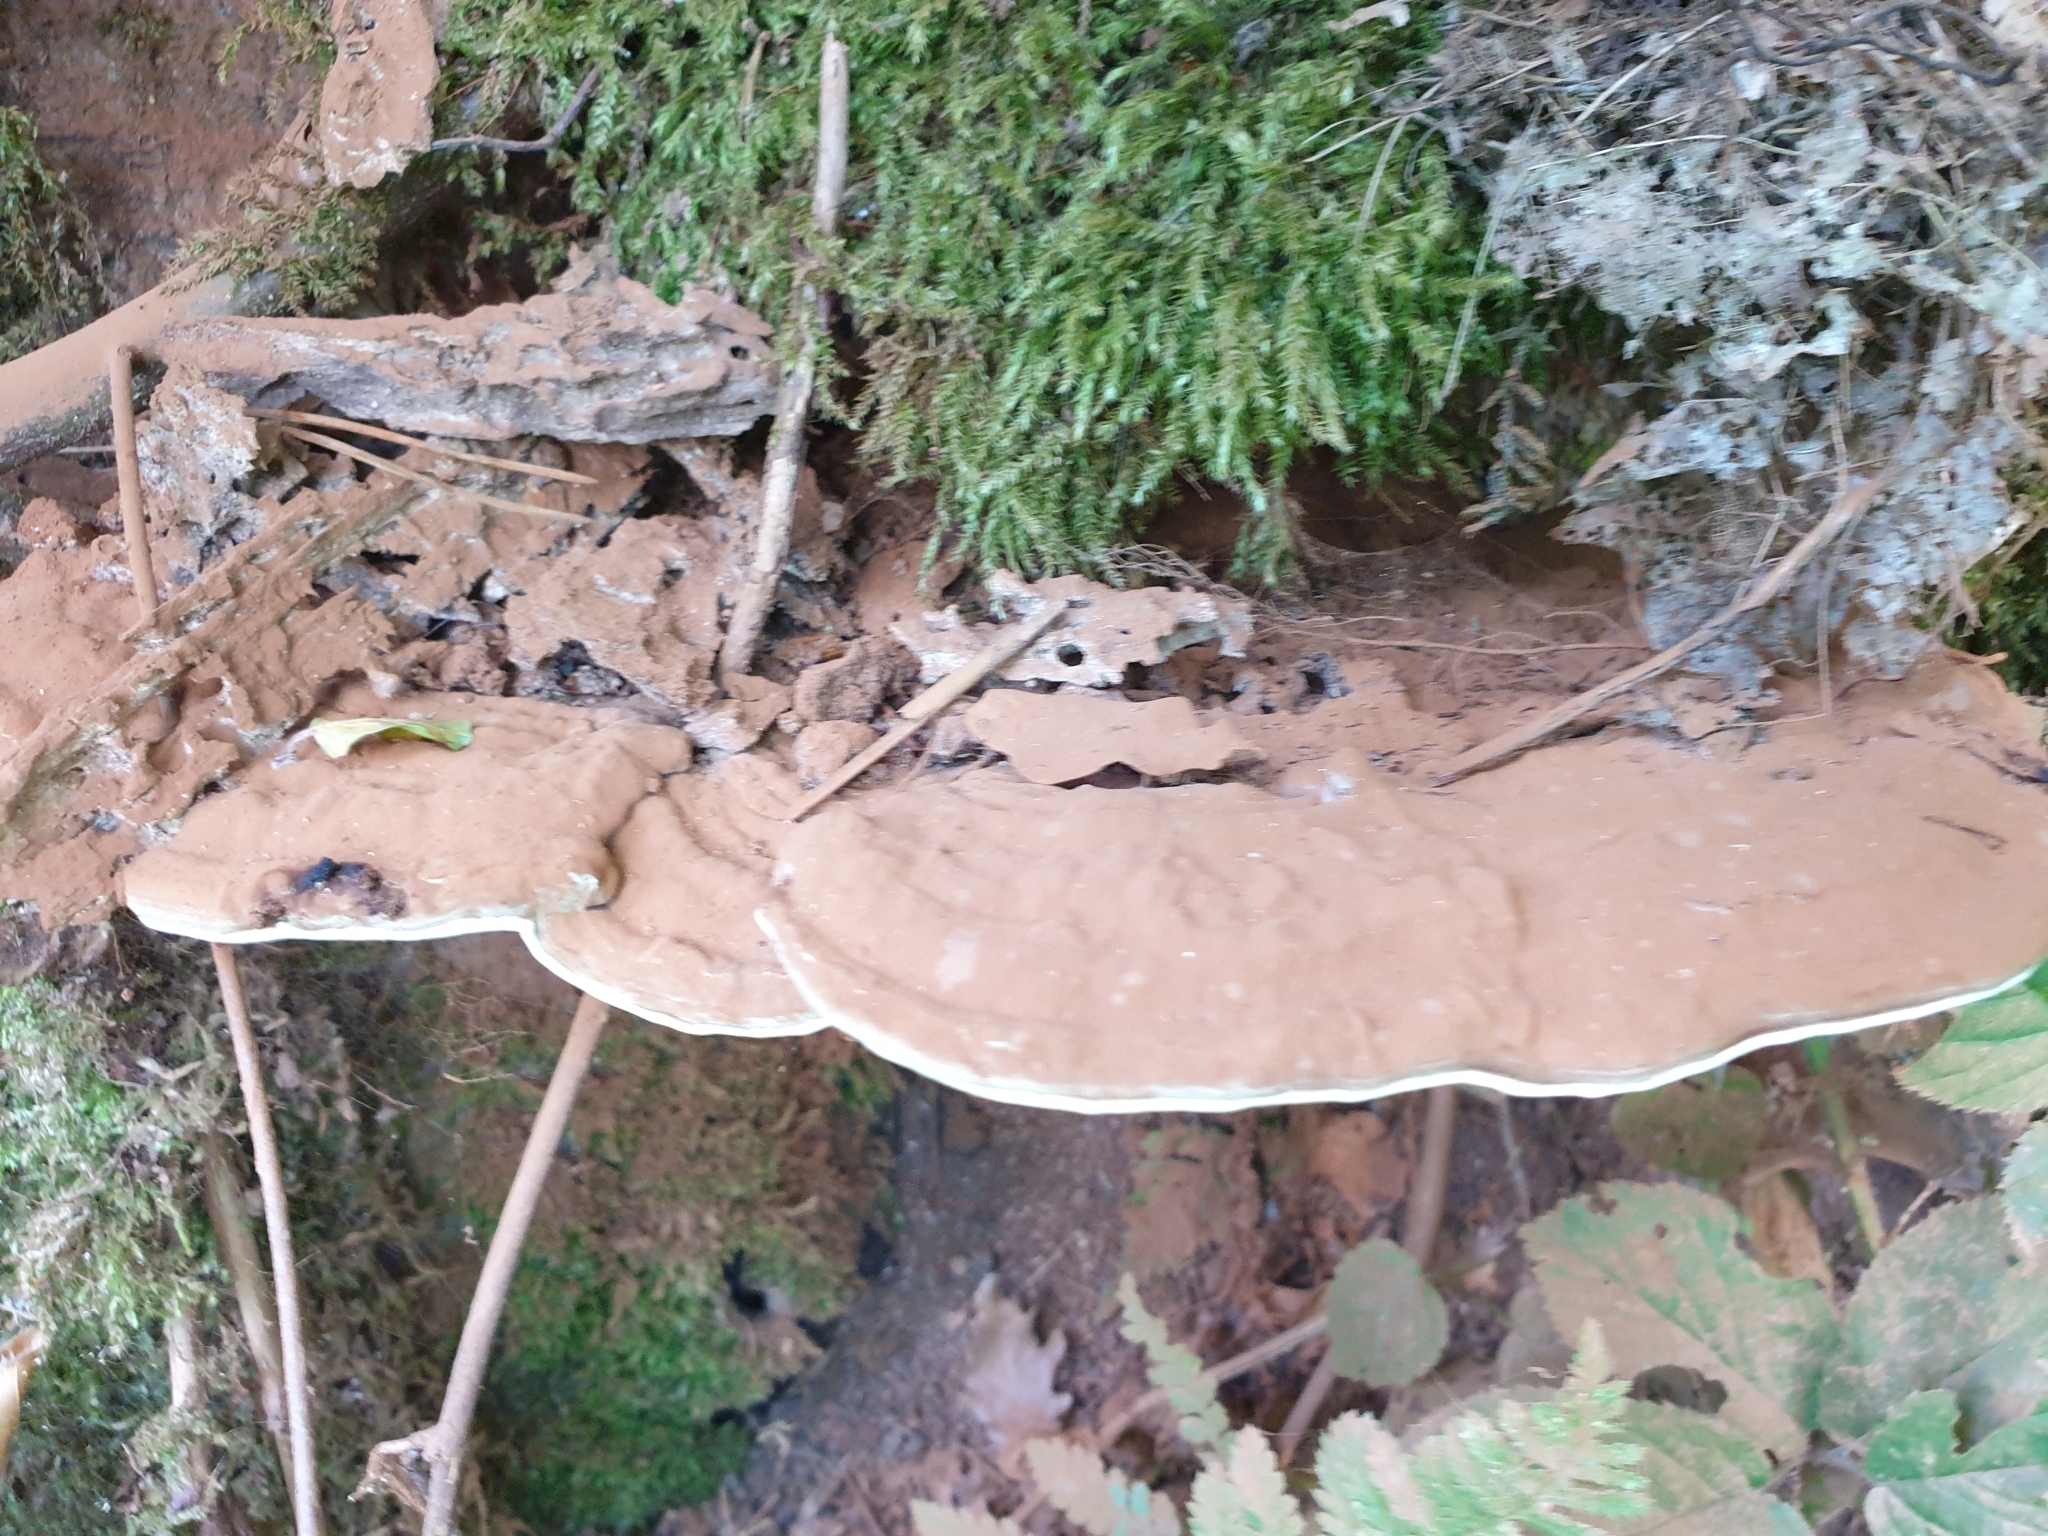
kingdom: Fungi
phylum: Basidiomycota
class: Agaricomycetes
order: Polyporales
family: Polyporaceae
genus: Ganoderma
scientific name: Ganoderma applanatum
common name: Artist's bracket
